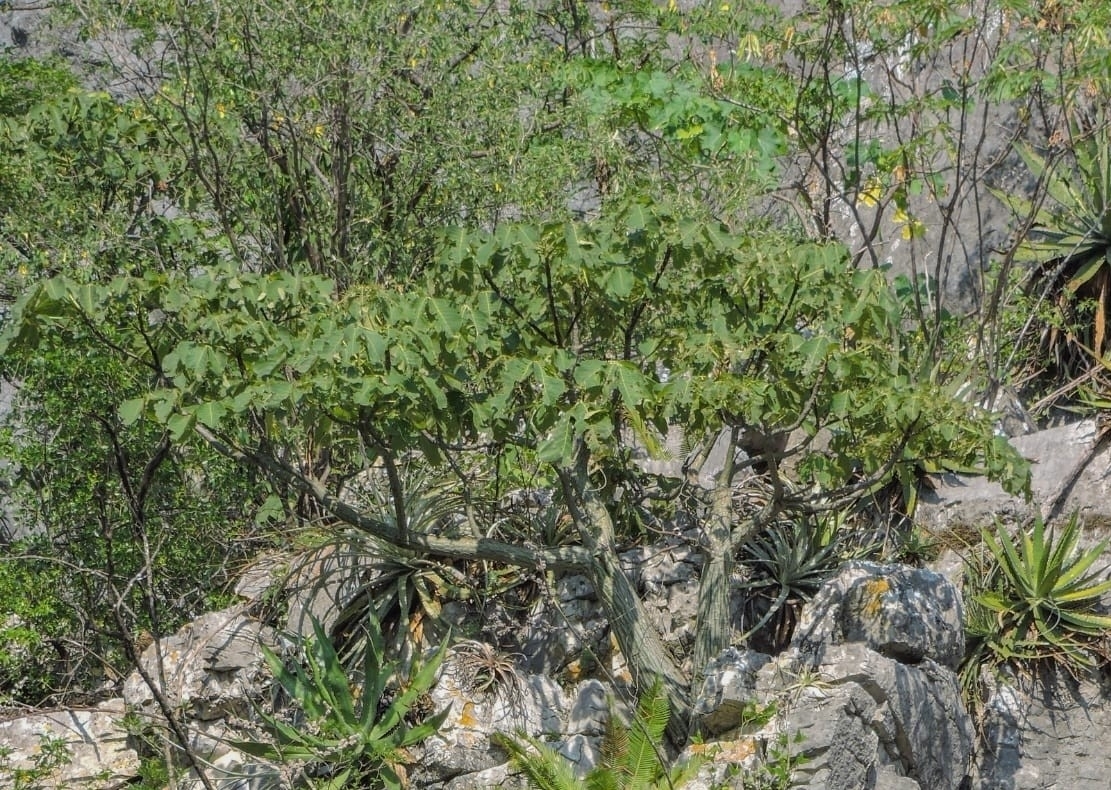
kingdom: Plantae
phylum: Tracheophyta
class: Magnoliopsida
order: Malvales
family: Malvaceae
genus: Pseudobombax
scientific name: Pseudobombax ellipticum
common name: Shaving-brush-tree
